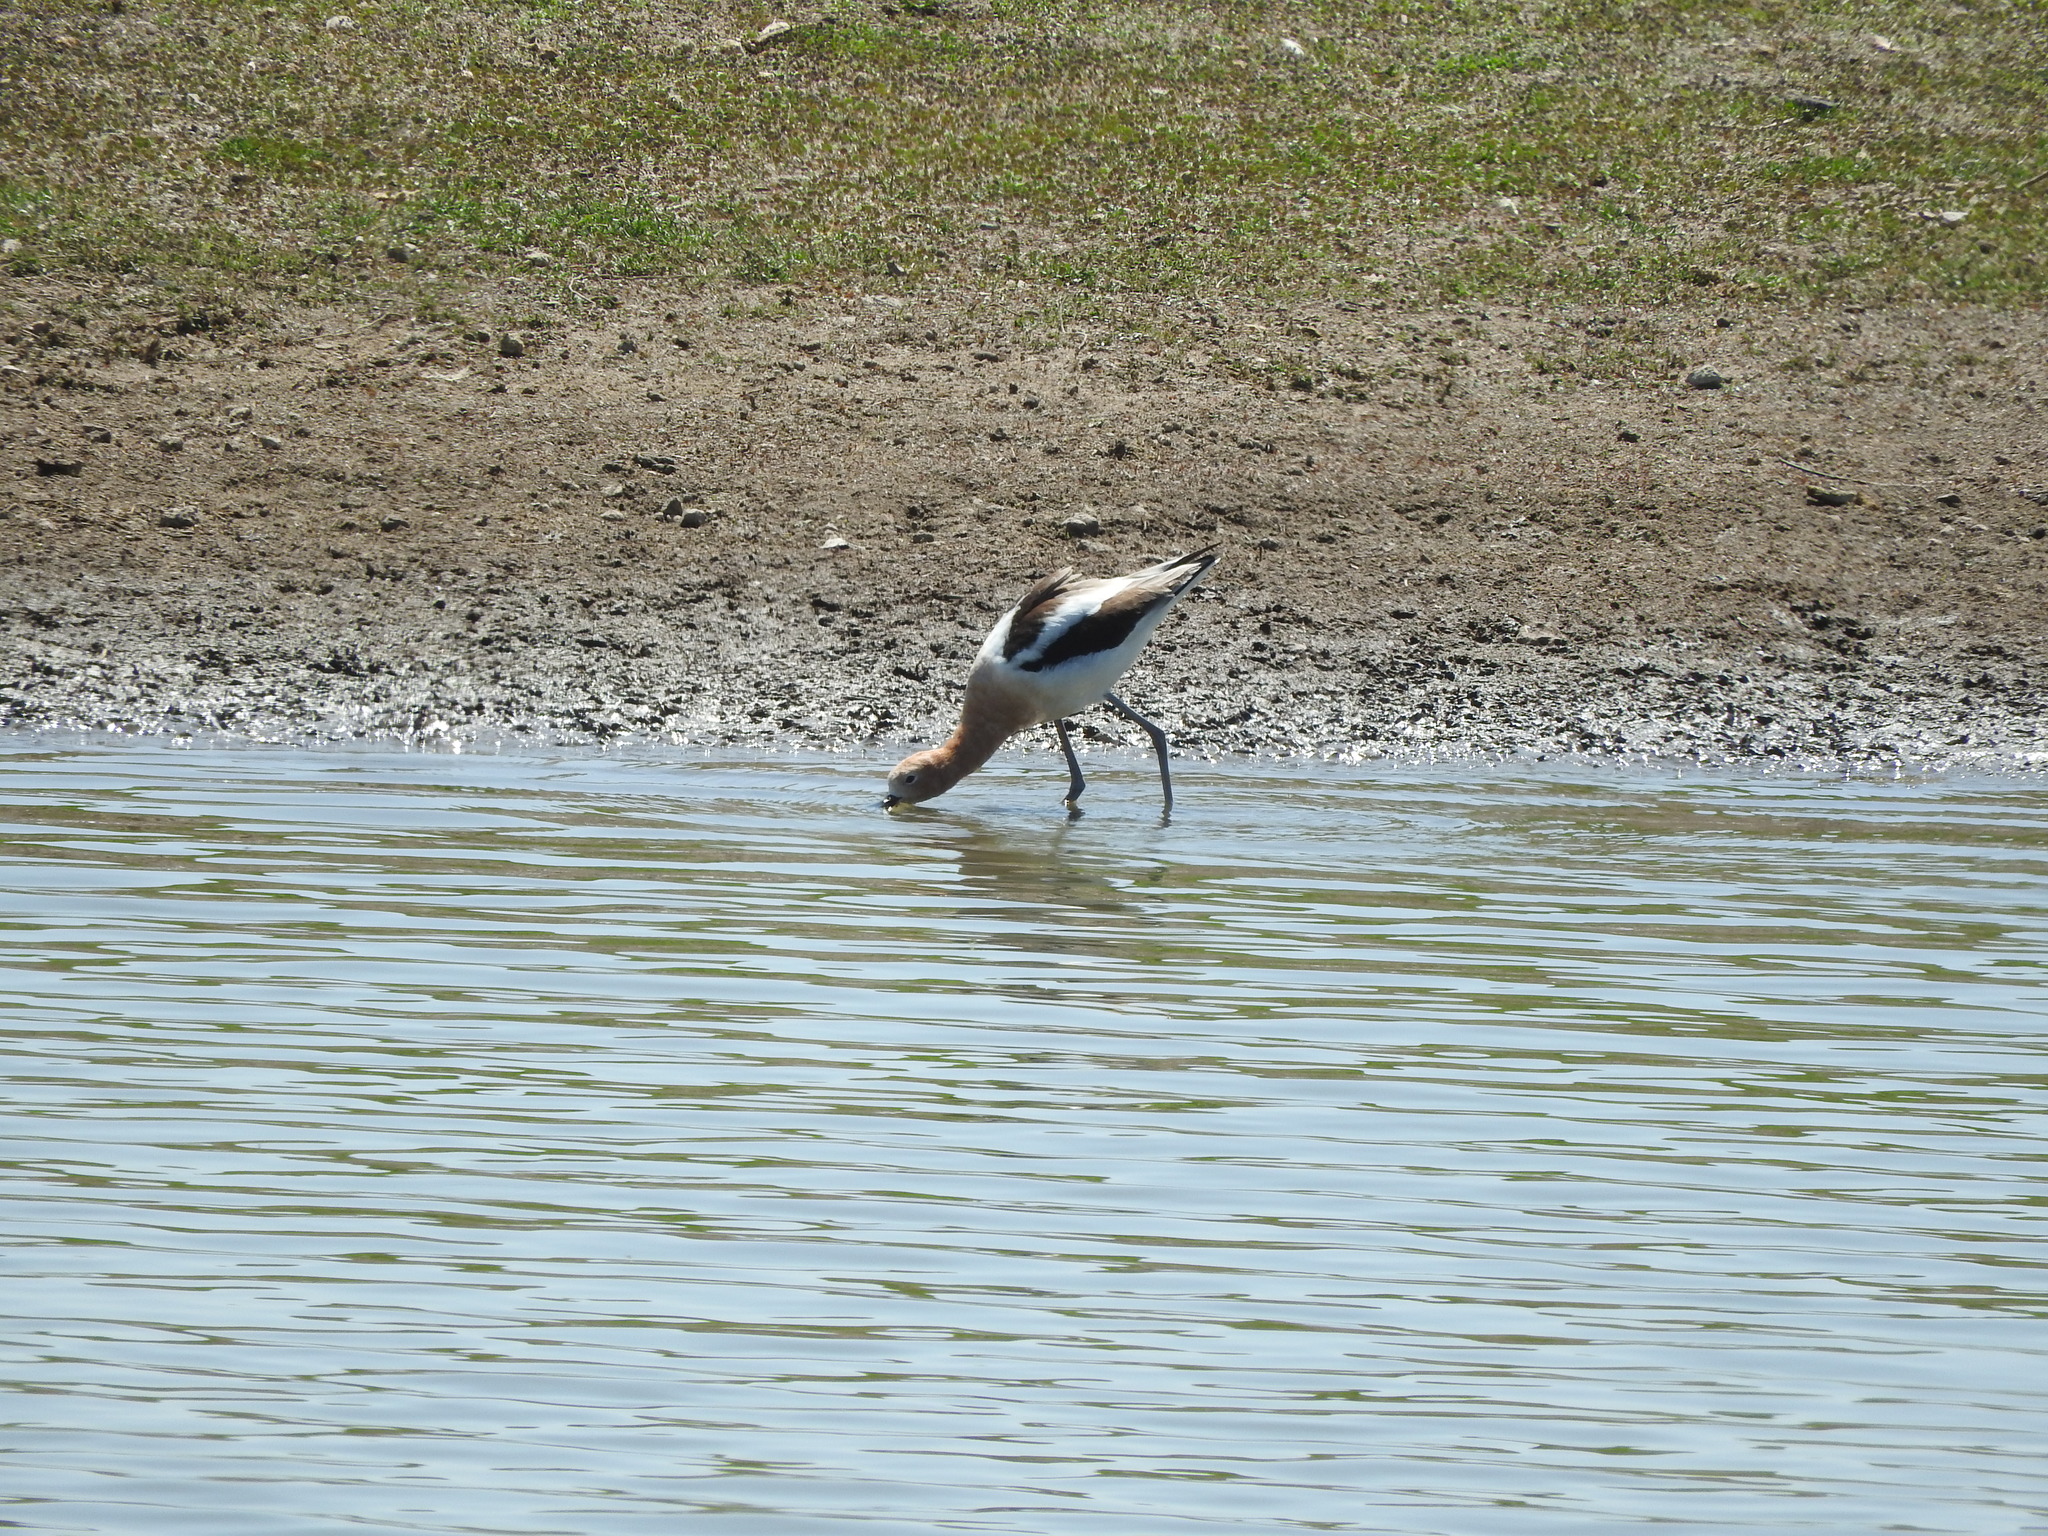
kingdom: Animalia
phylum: Chordata
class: Aves
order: Charadriiformes
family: Recurvirostridae
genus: Recurvirostra
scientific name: Recurvirostra americana
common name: American avocet
